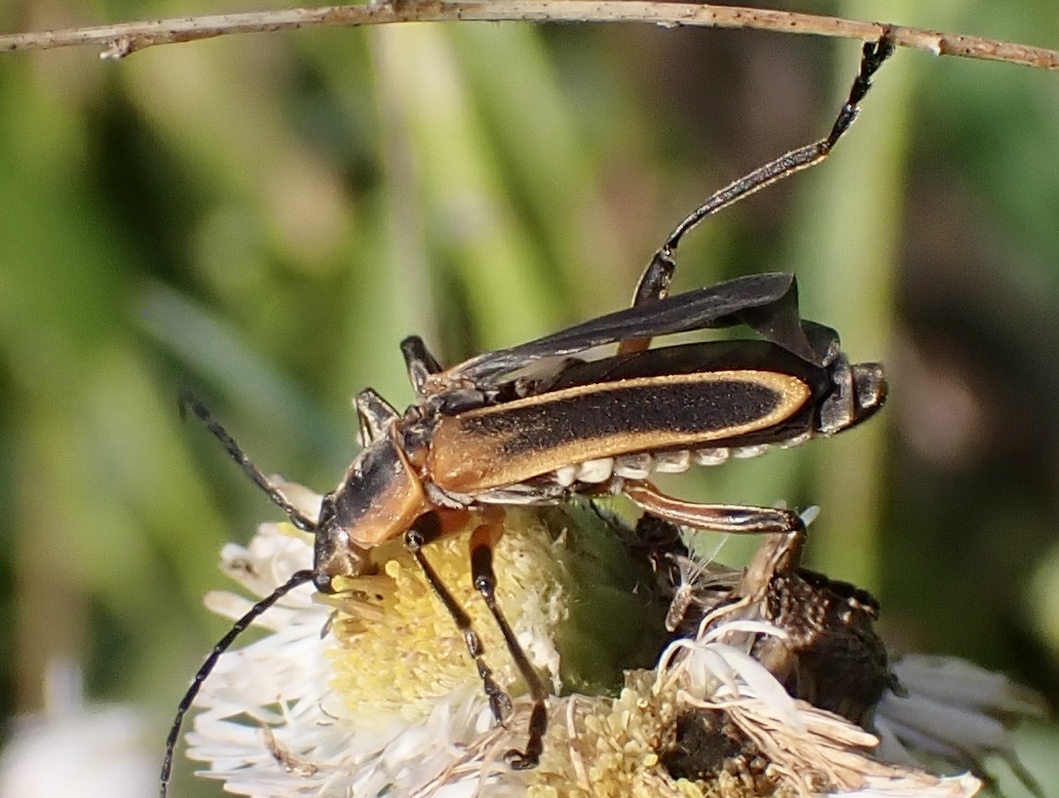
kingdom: Animalia
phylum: Arthropoda
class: Insecta
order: Coleoptera
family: Cantharidae
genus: Chauliognathus
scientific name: Chauliognathus marginatus
